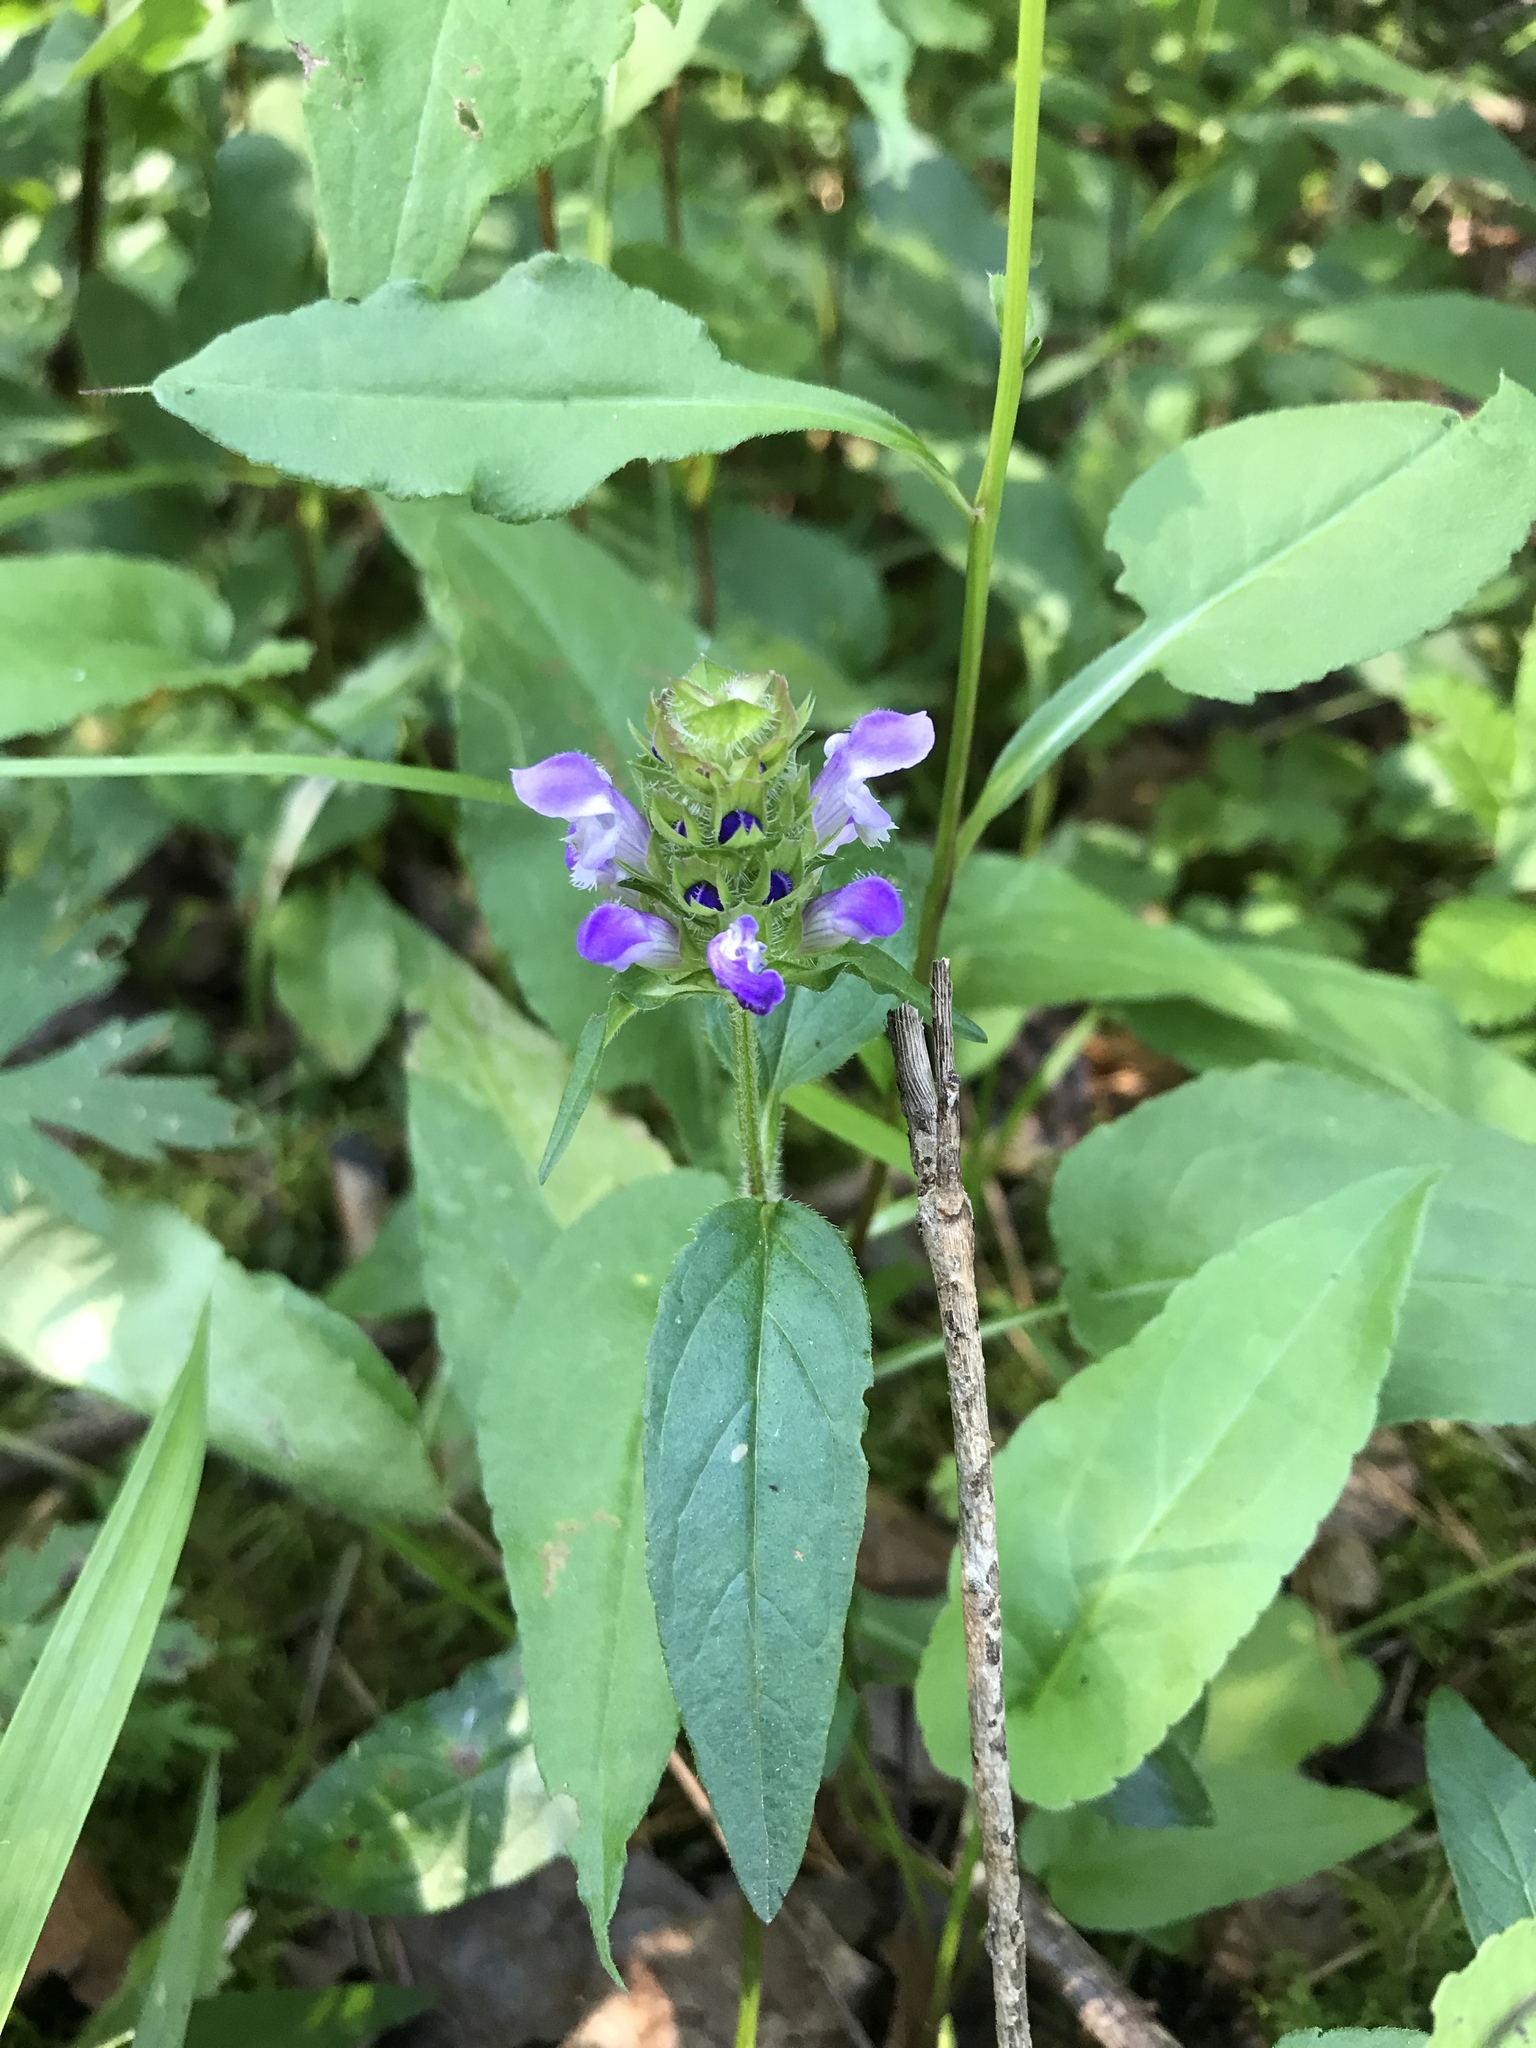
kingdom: Plantae
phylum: Tracheophyta
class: Magnoliopsida
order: Lamiales
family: Lamiaceae
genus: Prunella
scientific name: Prunella vulgaris
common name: Heal-all
